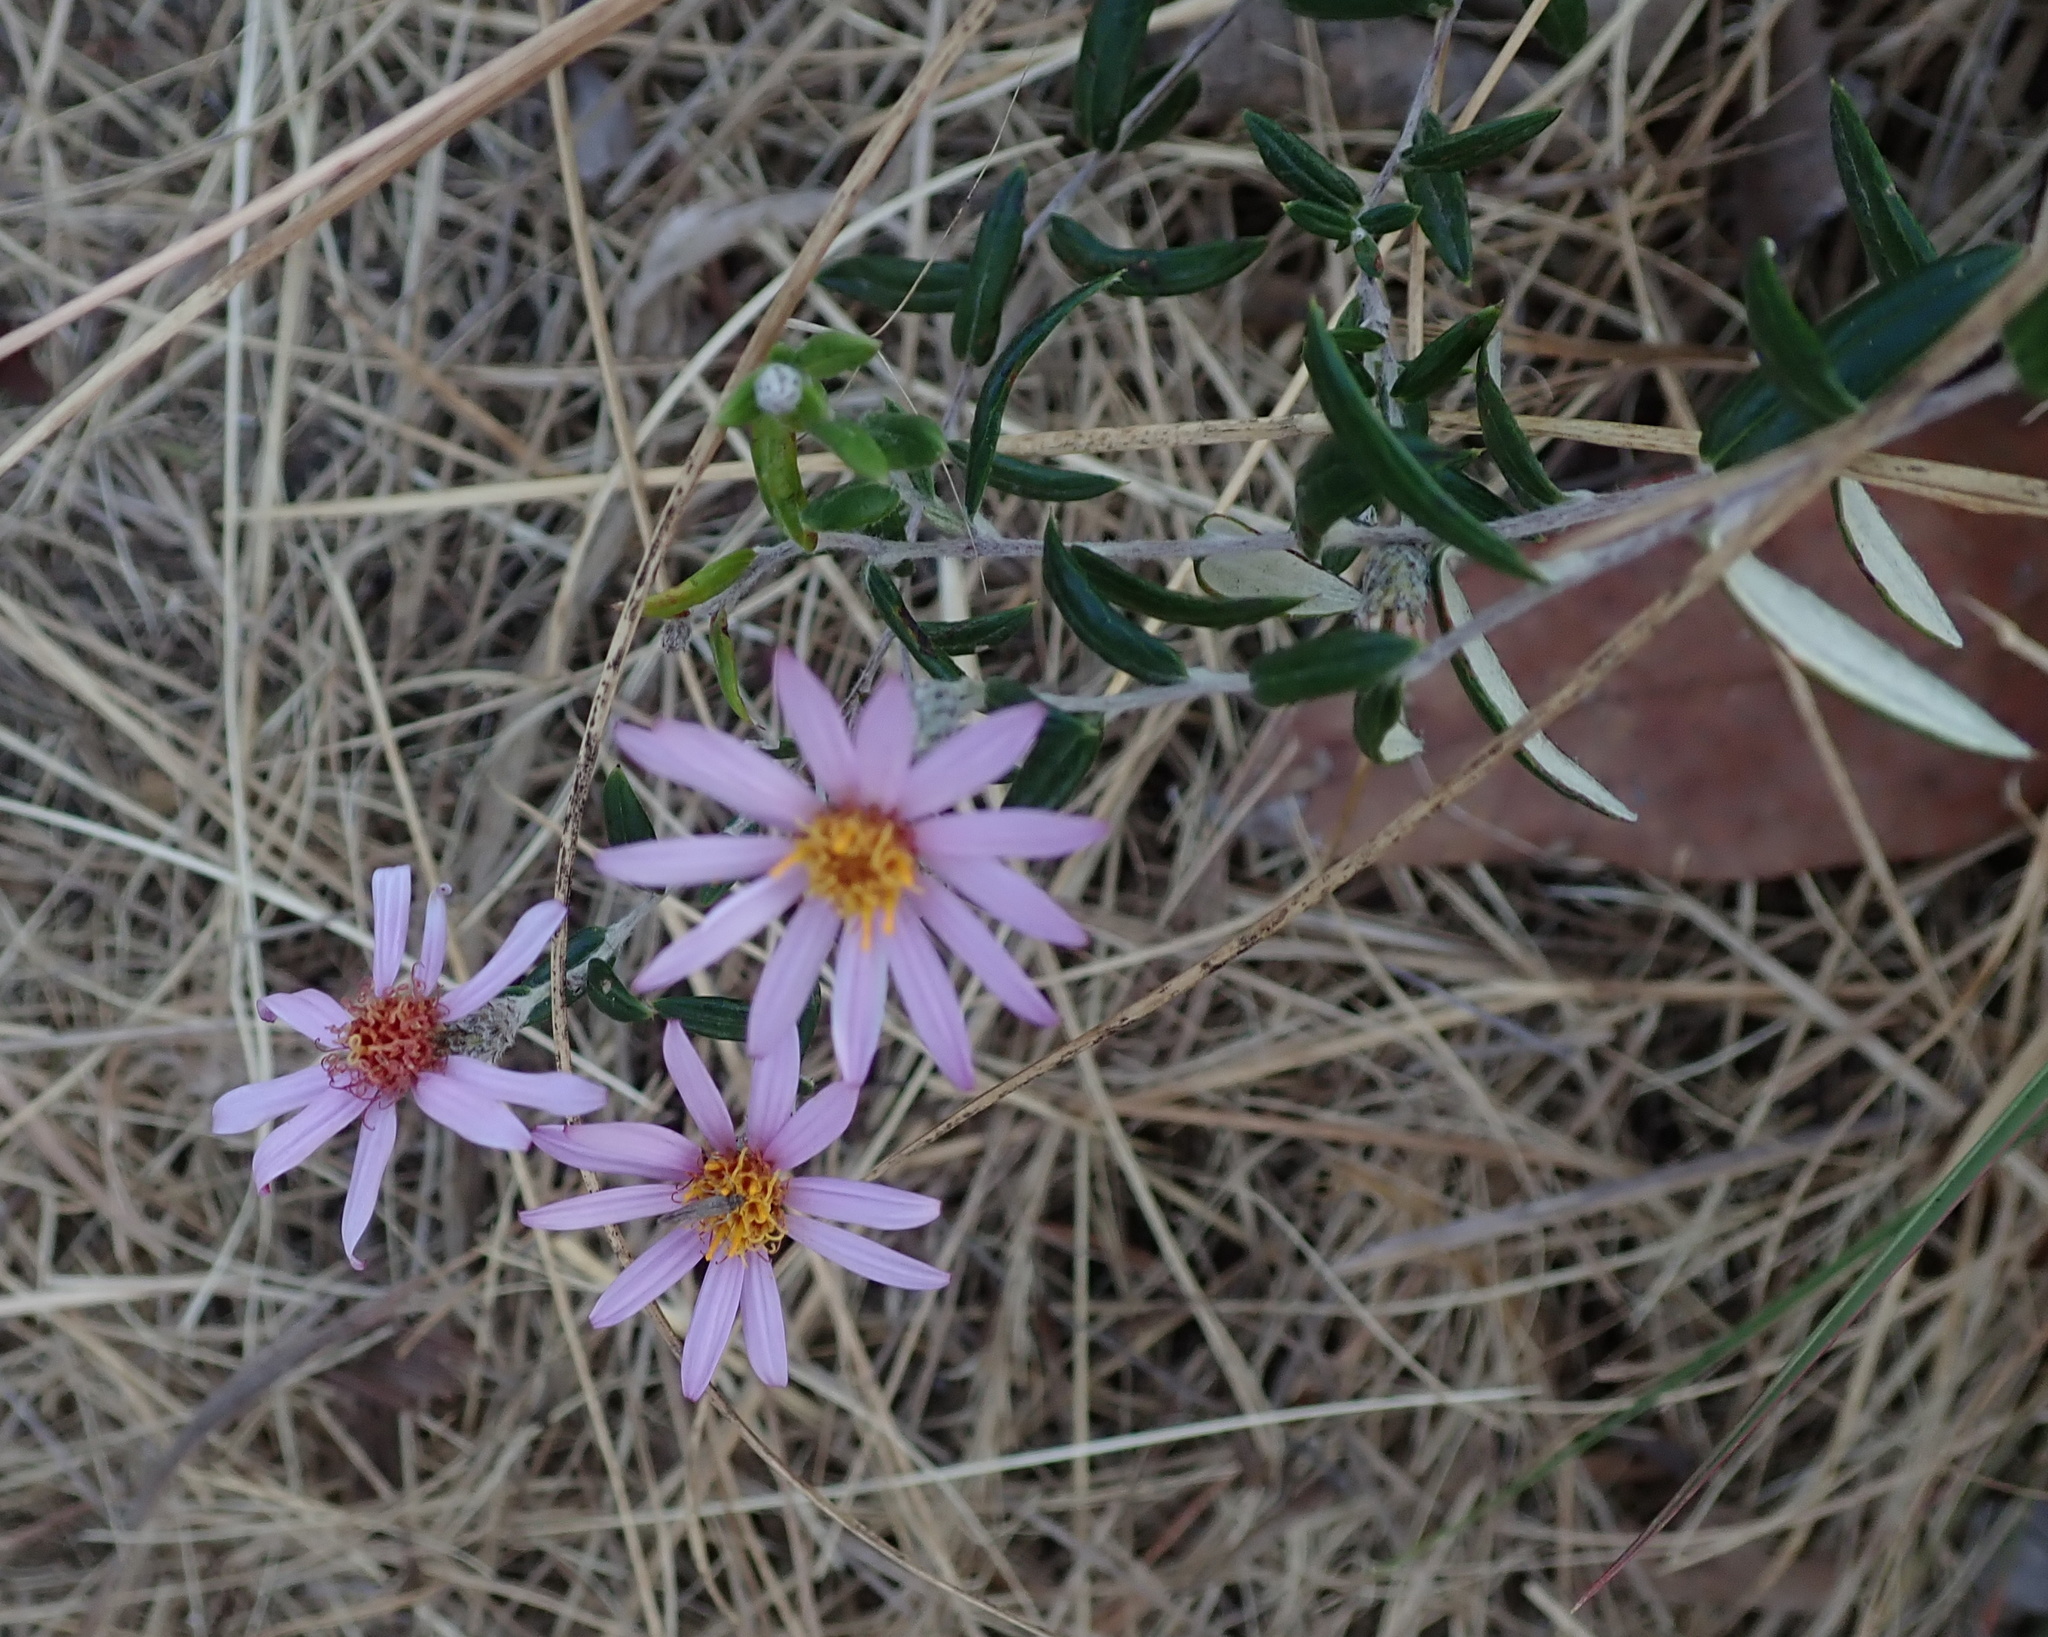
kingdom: Plantae
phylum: Tracheophyta
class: Magnoliopsida
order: Asterales
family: Asteraceae
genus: Athrixia
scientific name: Athrixia phylicoides
